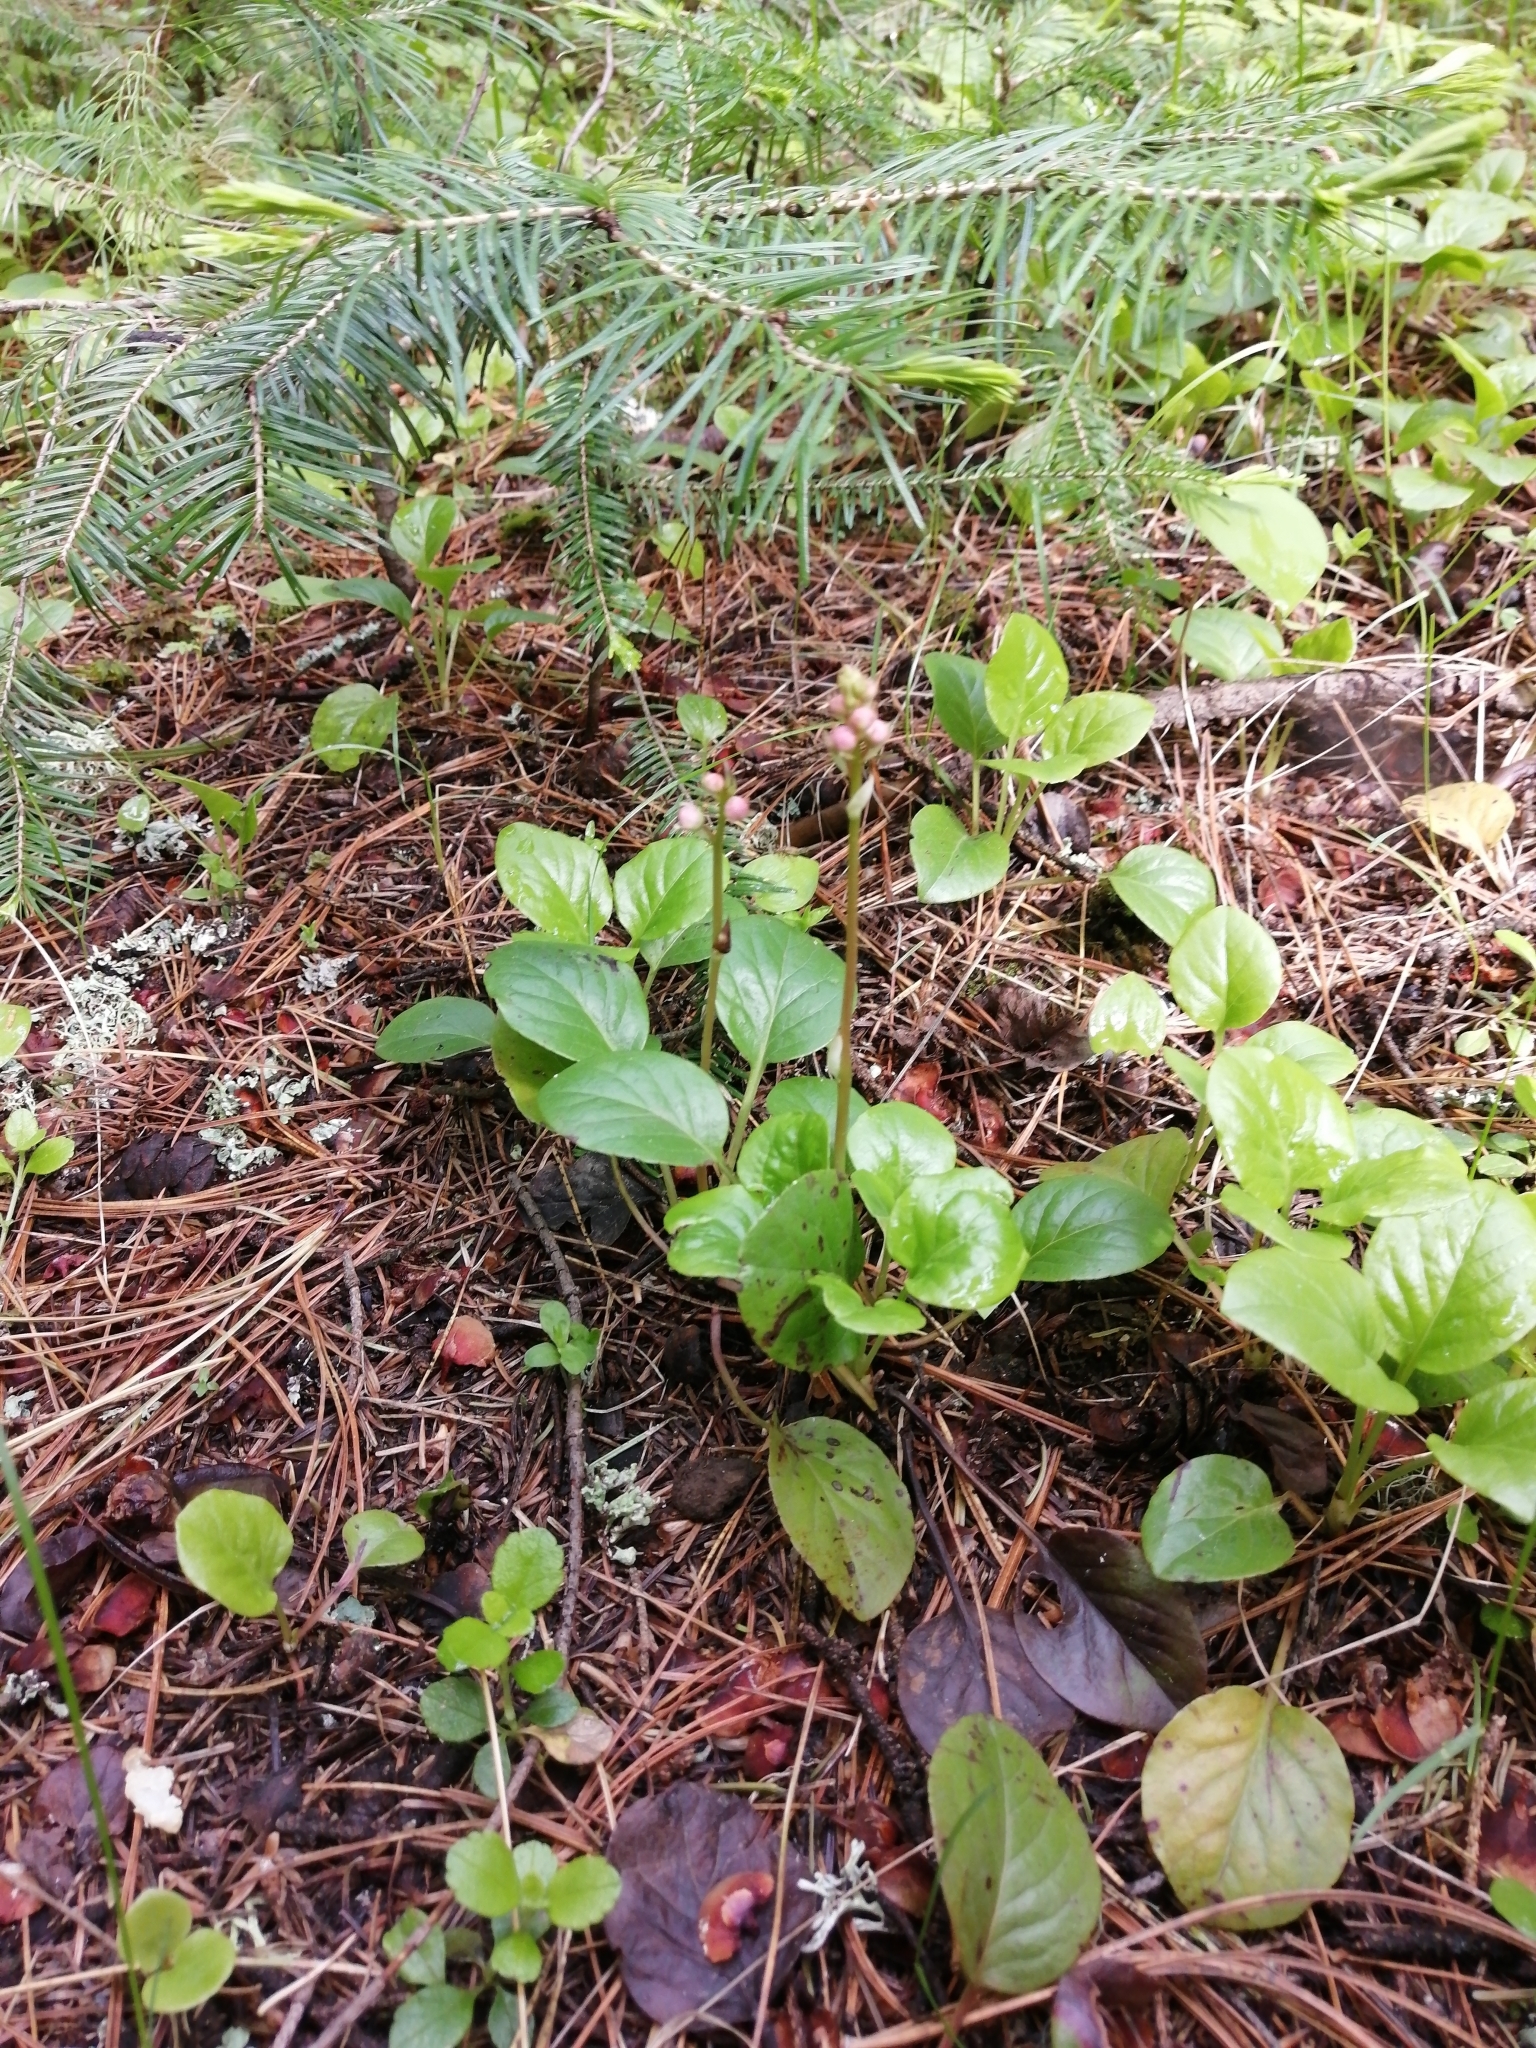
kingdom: Plantae
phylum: Tracheophyta
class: Magnoliopsida
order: Ericales
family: Ericaceae
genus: Pyrola
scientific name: Pyrola asarifolia
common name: Bog wintergreen
